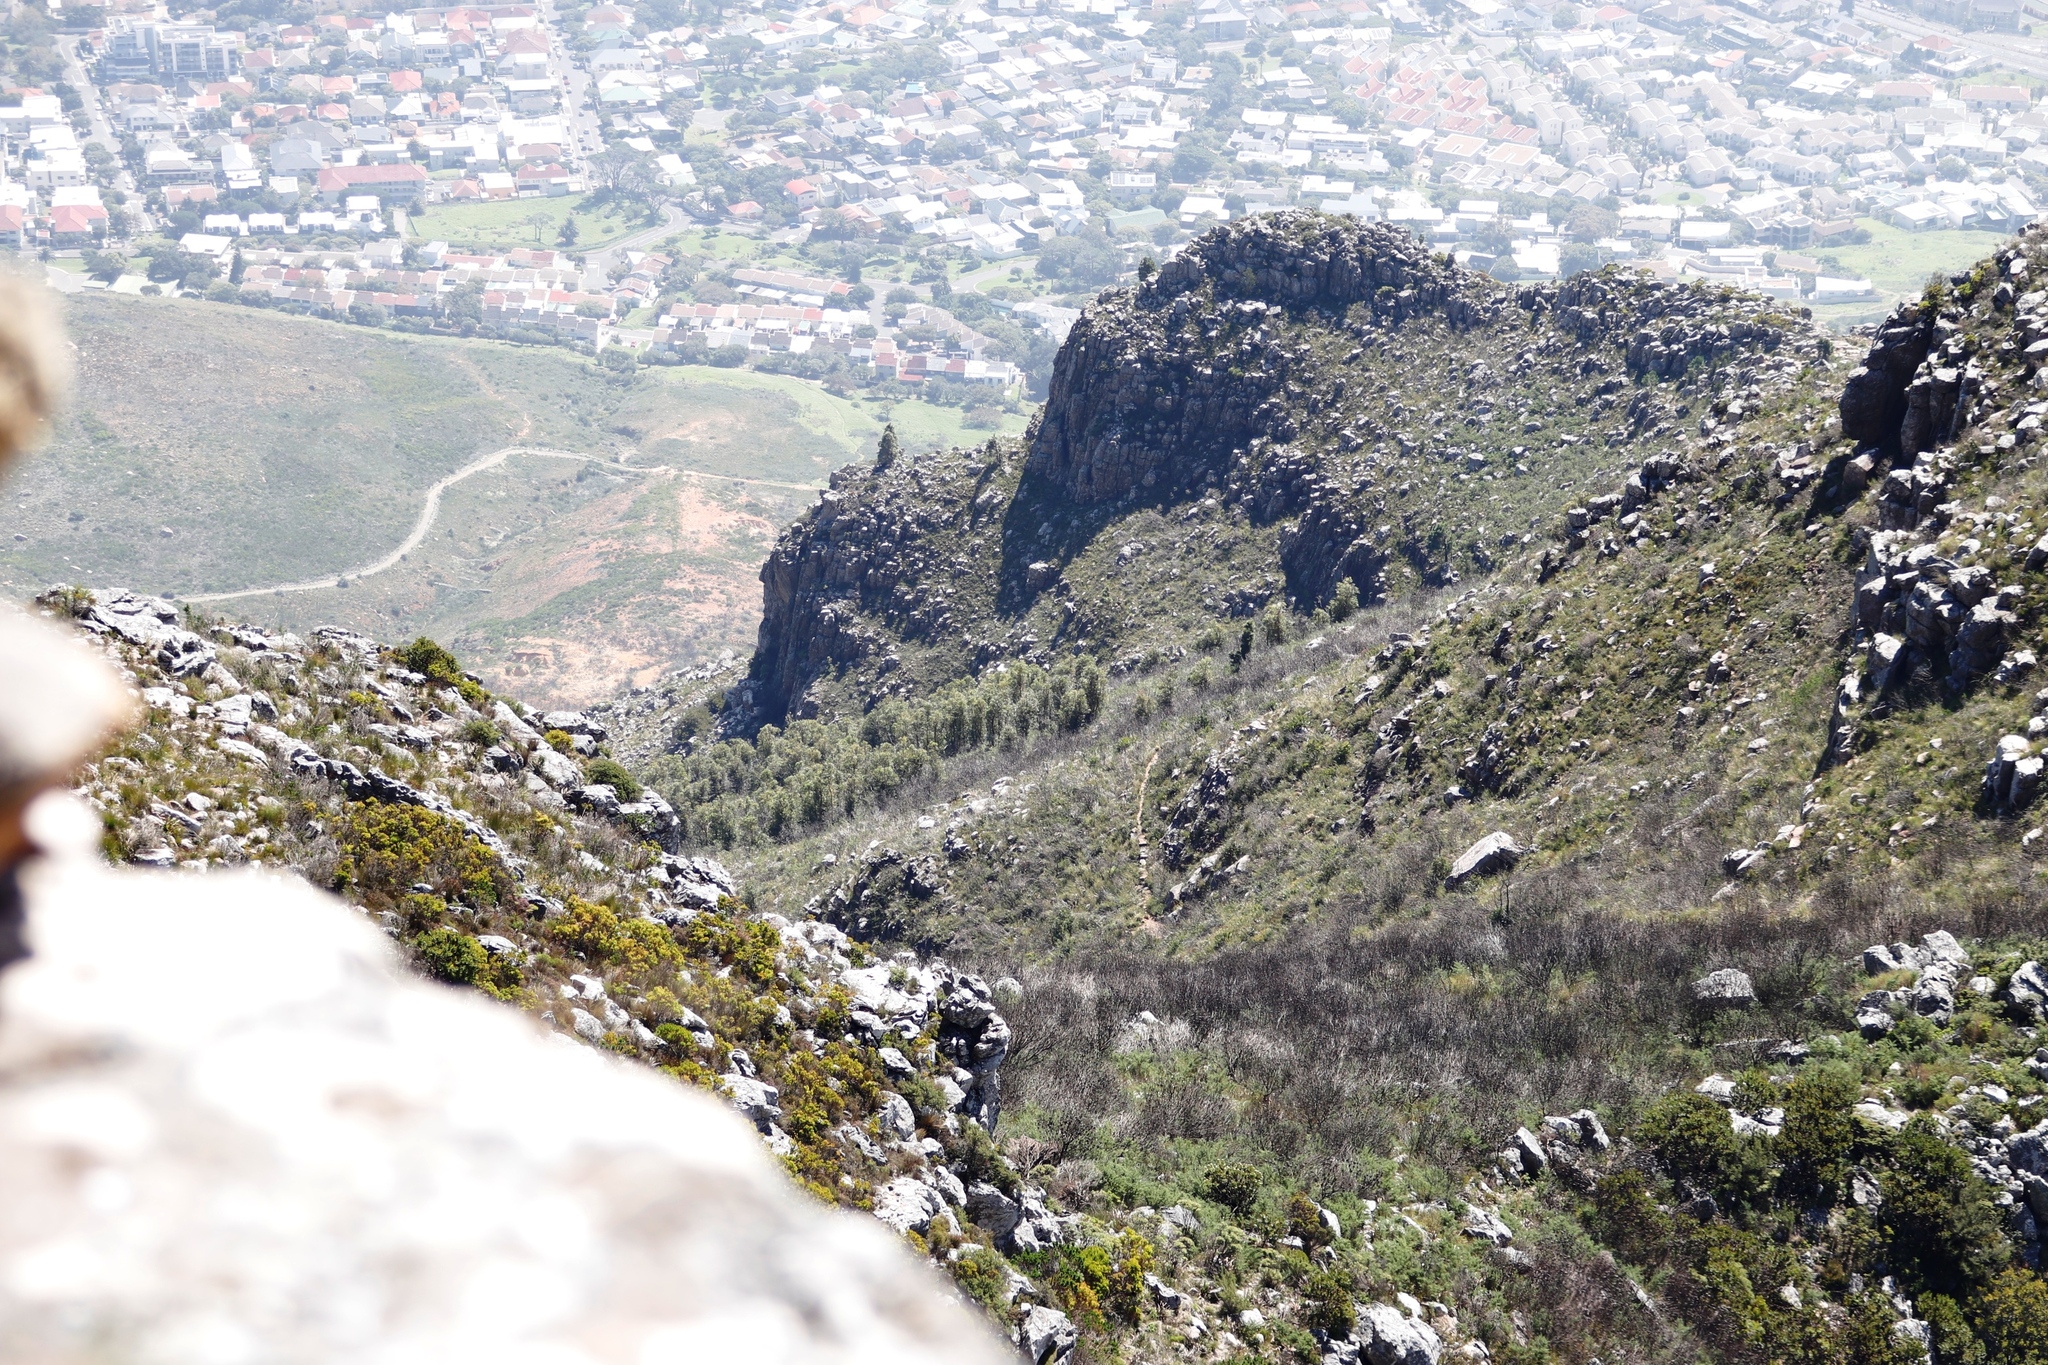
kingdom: Plantae
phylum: Tracheophyta
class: Magnoliopsida
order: Fabales
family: Fabaceae
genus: Acacia
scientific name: Acacia melanoxylon
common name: Blackwood
